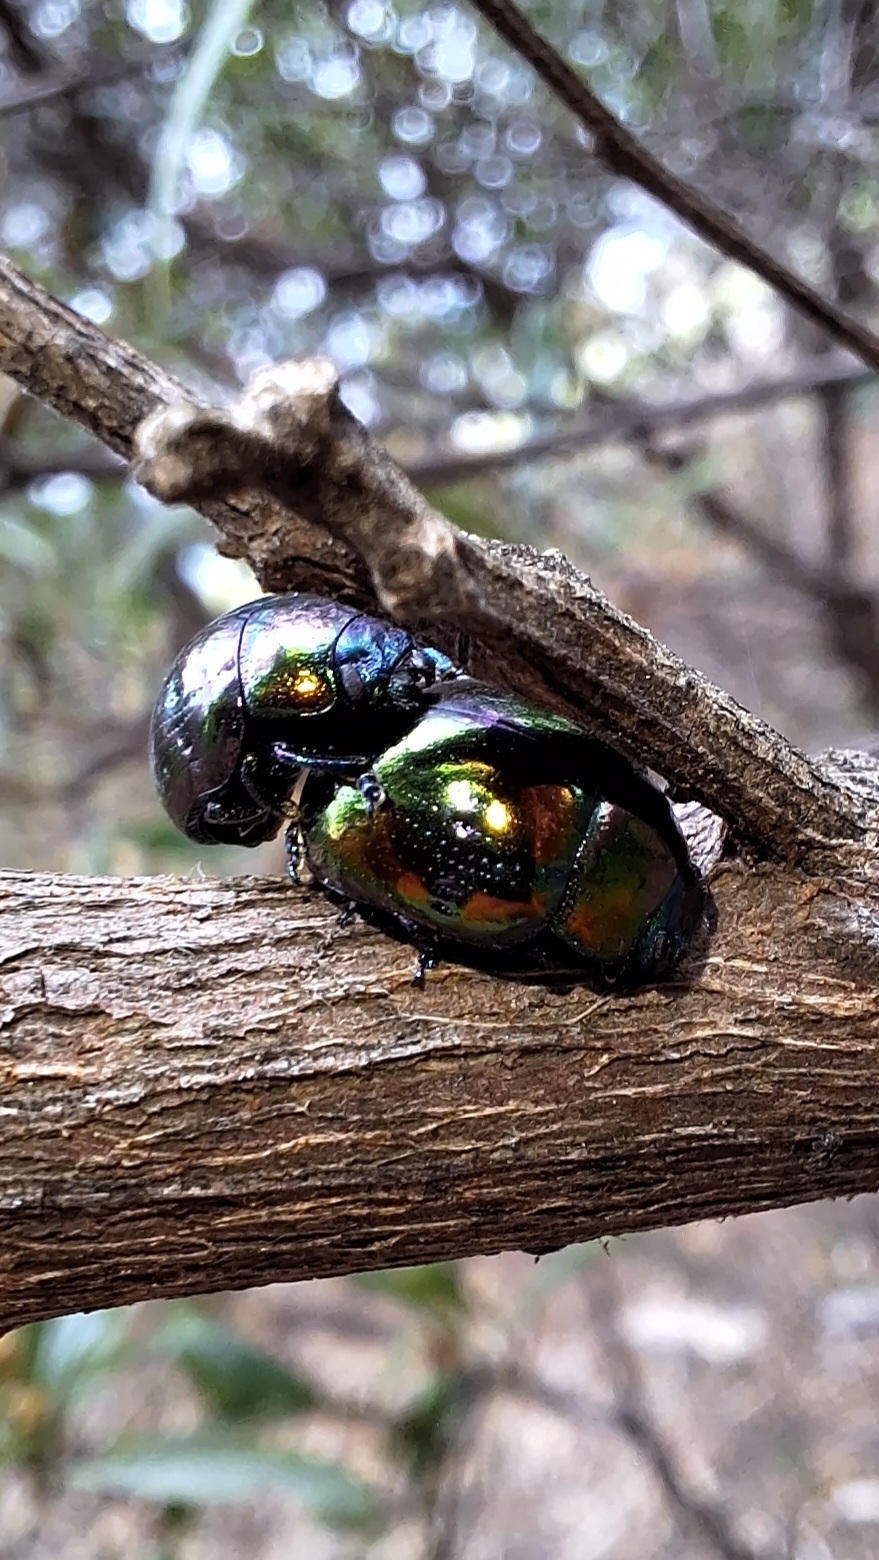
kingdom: Animalia
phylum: Arthropoda
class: Insecta
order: Coleoptera
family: Chrysomelidae
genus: Callidemum
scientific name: Callidemum
